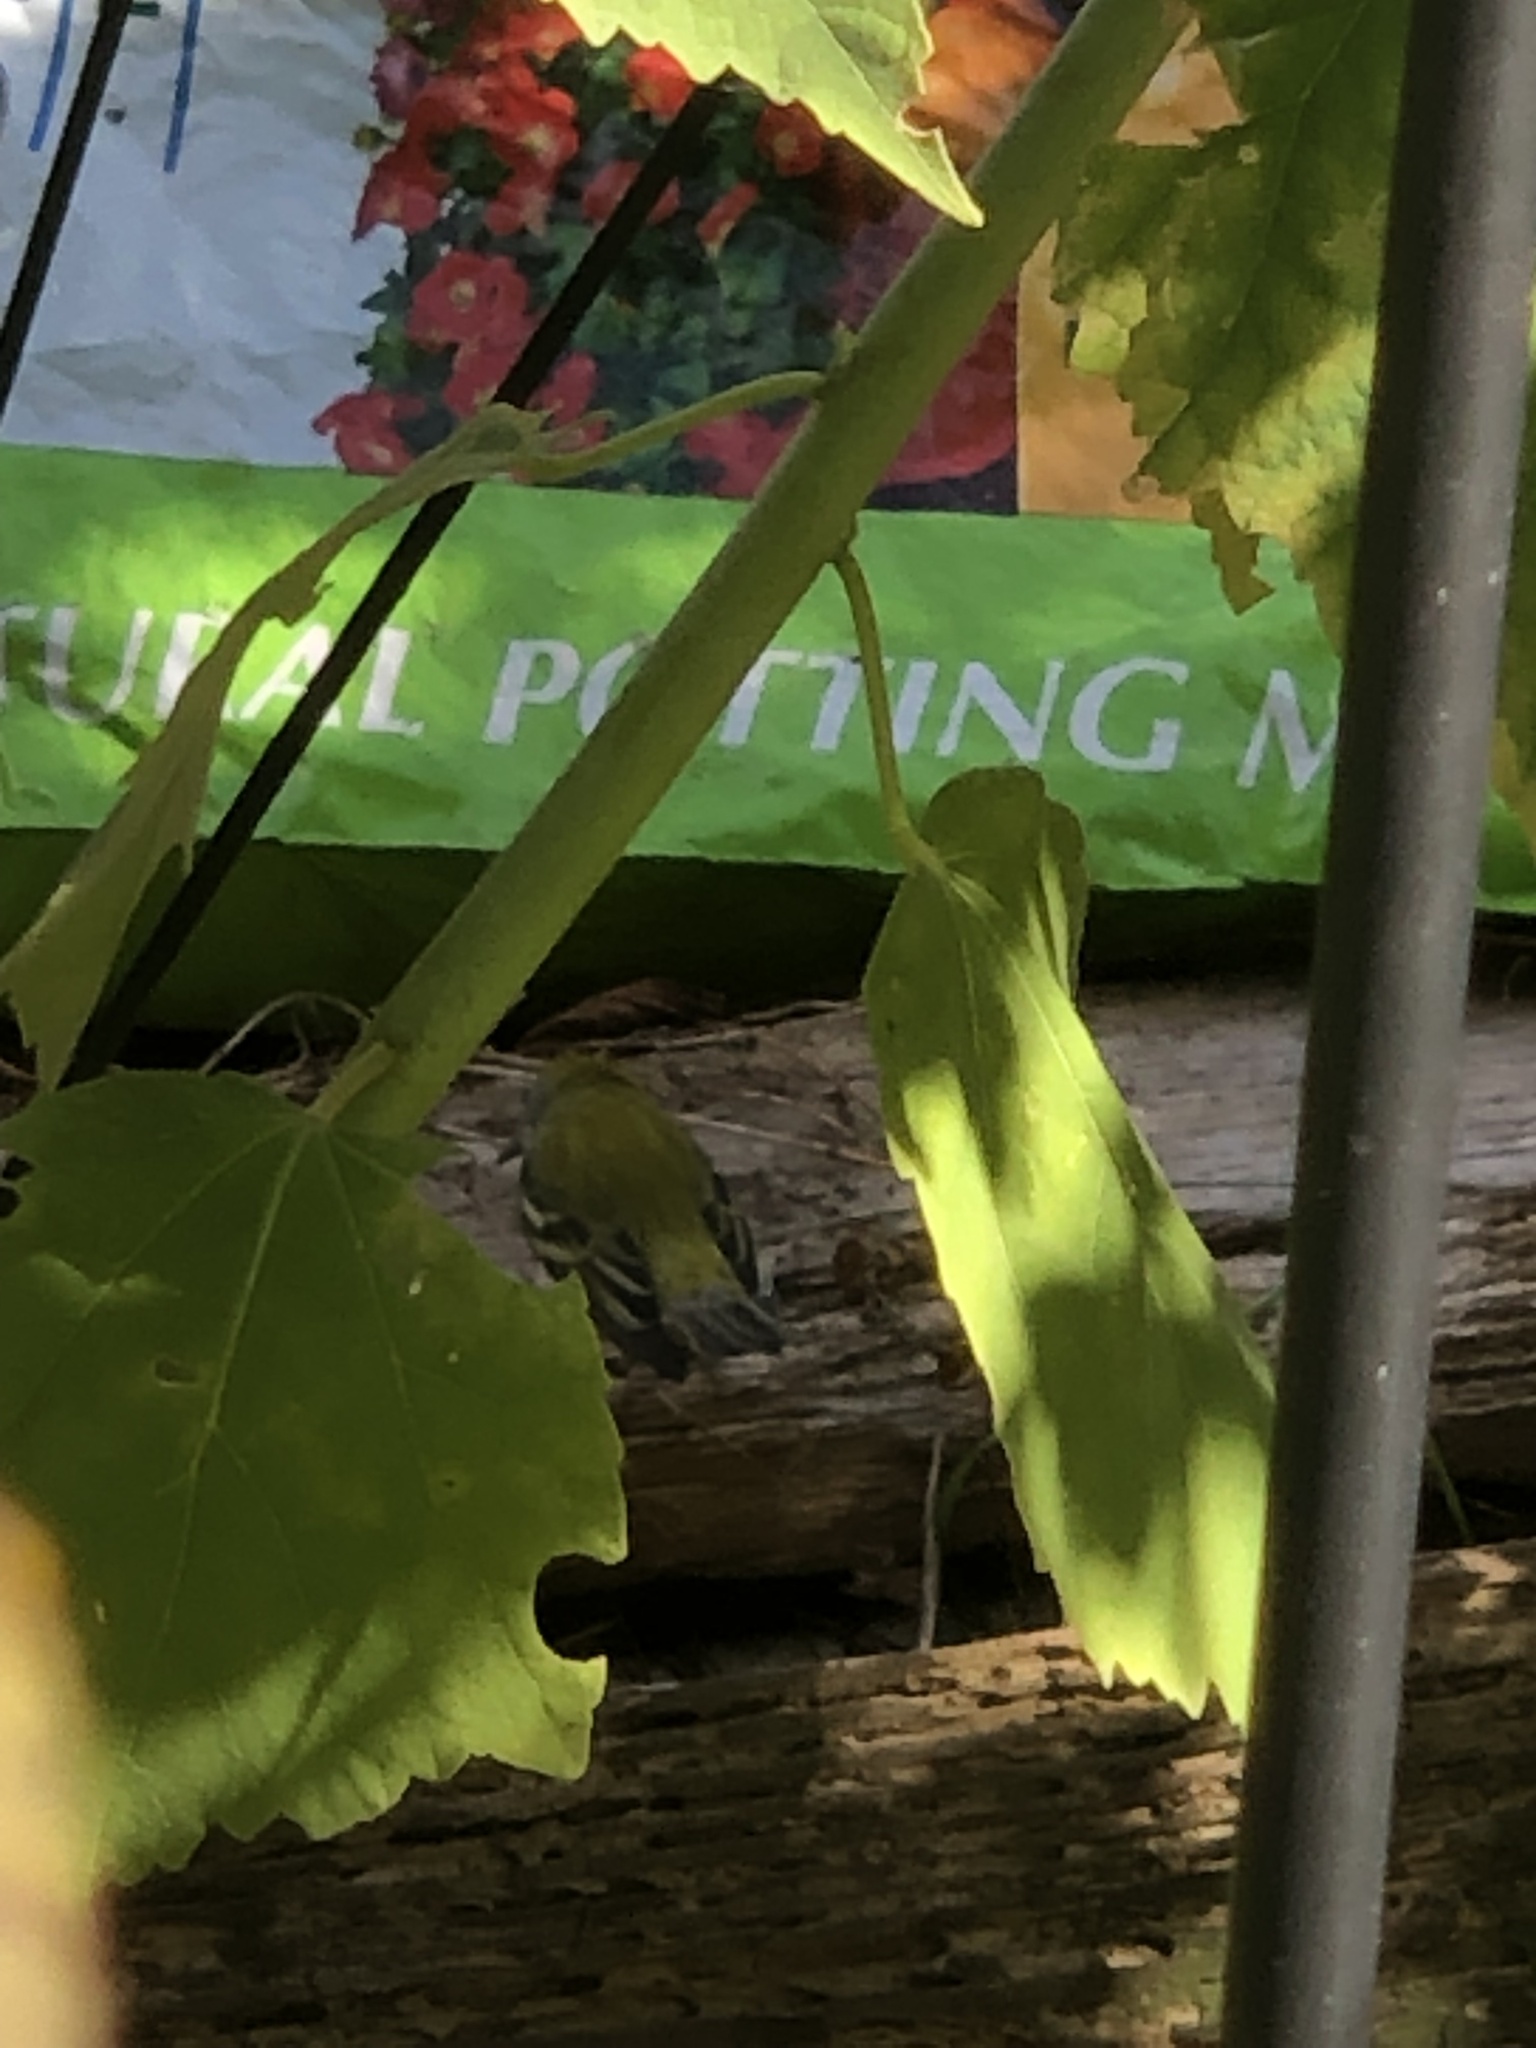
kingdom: Animalia
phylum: Chordata
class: Aves
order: Passeriformes
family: Parulidae
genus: Setophaga
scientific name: Setophaga pensylvanica
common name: Chestnut-sided warbler
